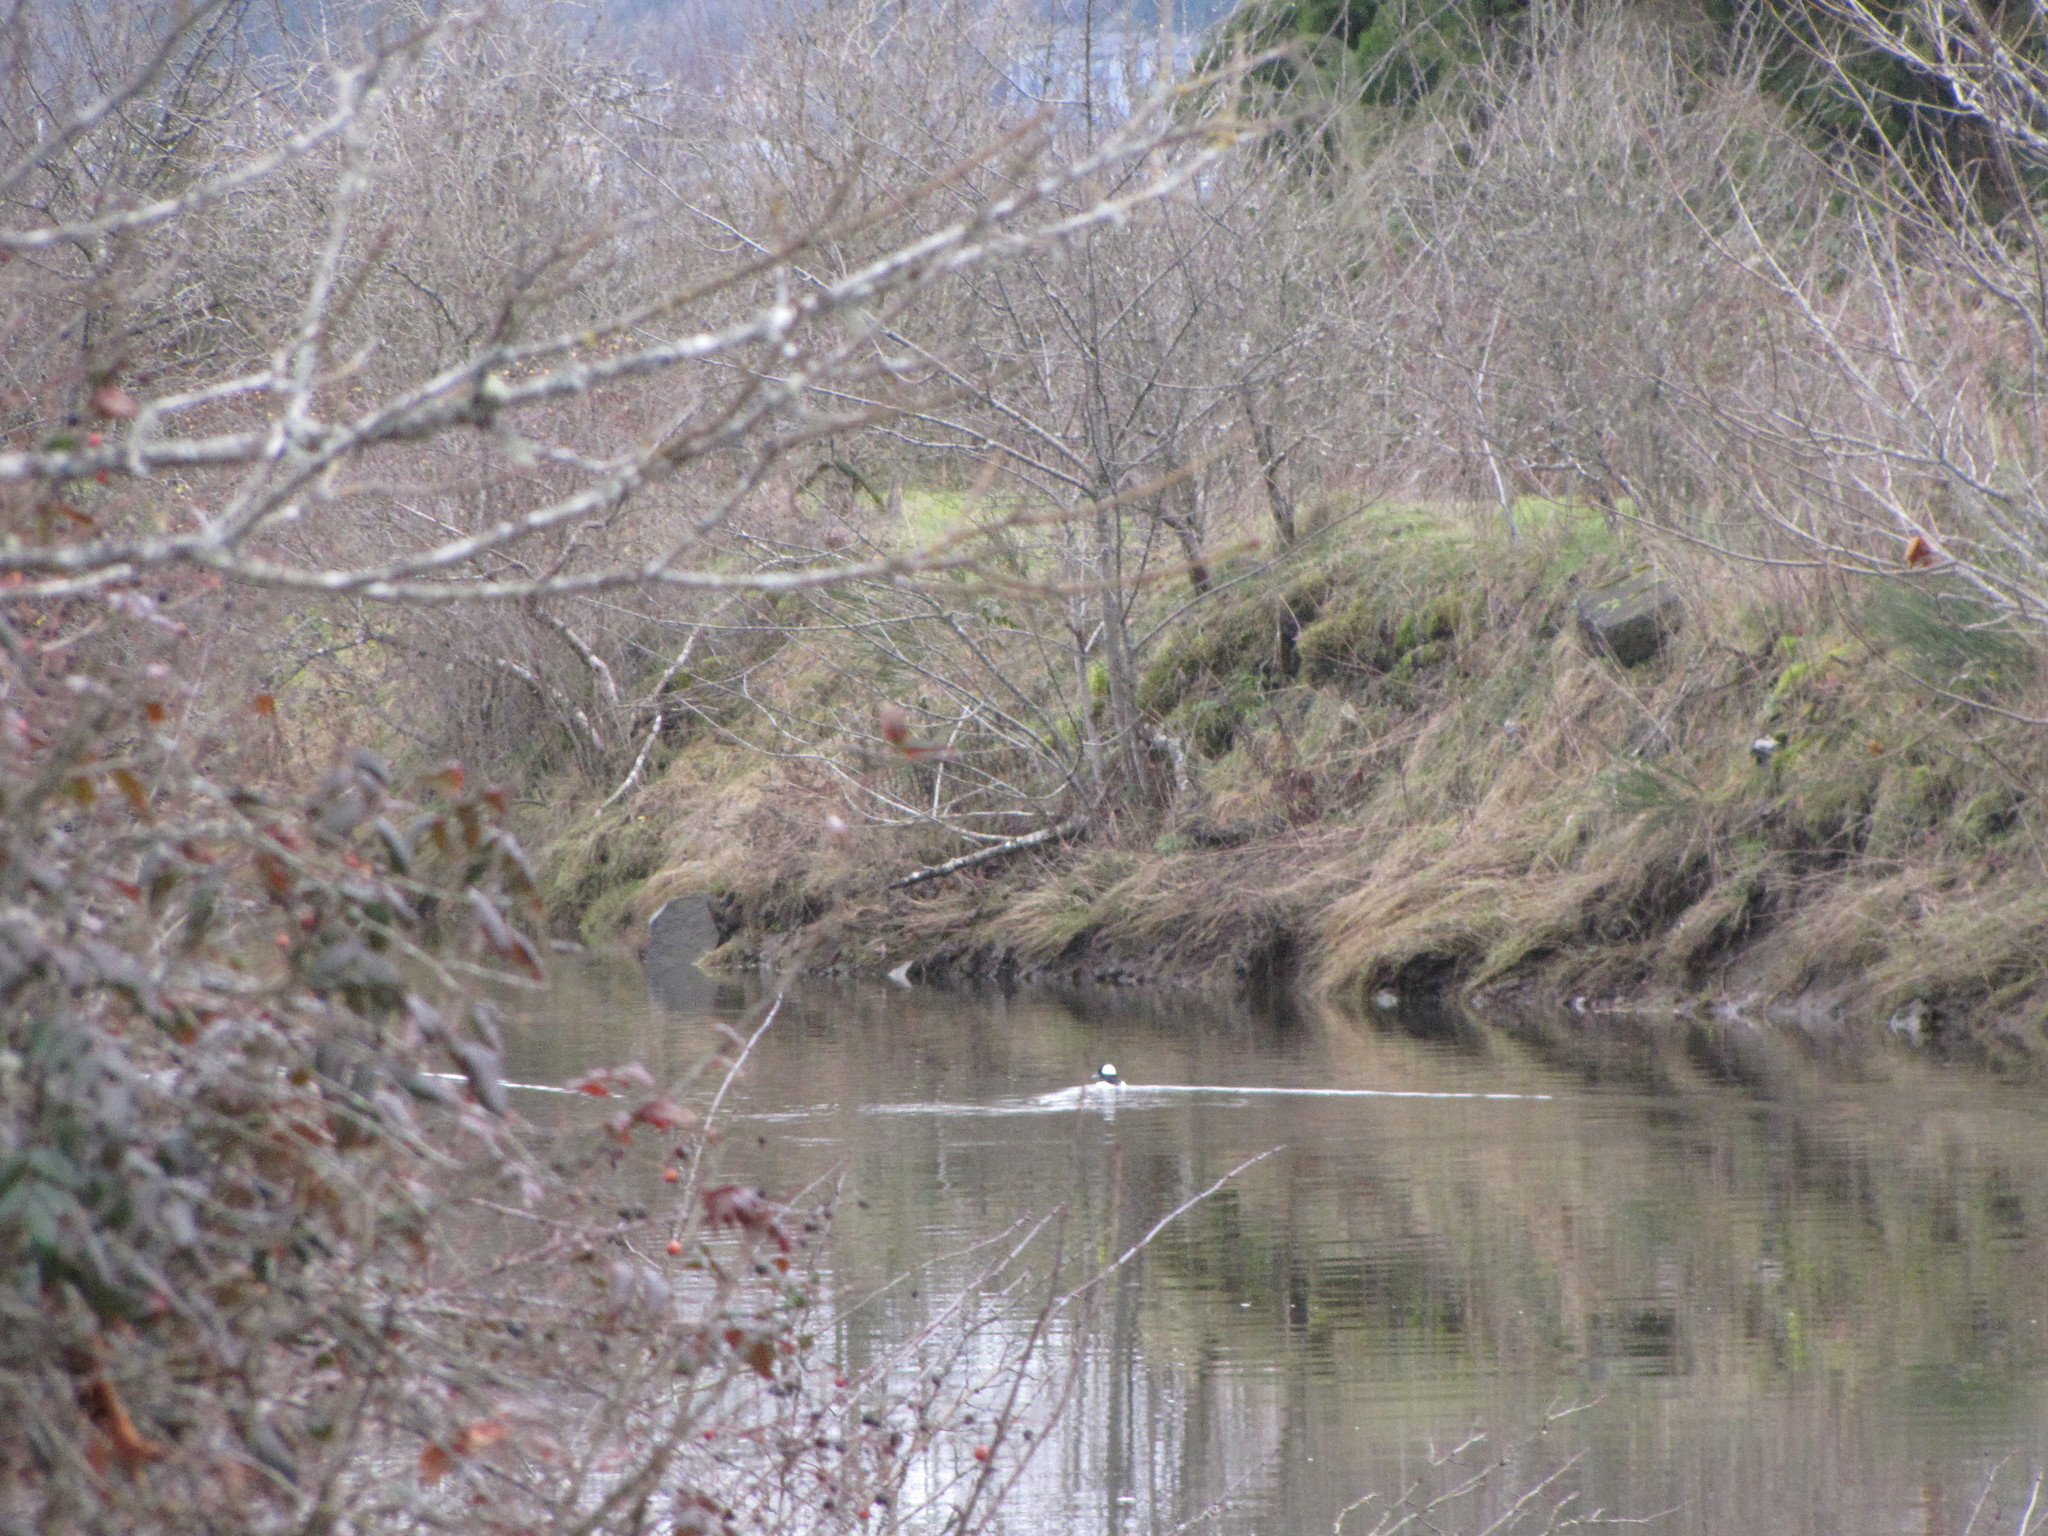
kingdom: Animalia
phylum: Chordata
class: Aves
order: Anseriformes
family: Anatidae
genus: Bucephala
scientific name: Bucephala albeola
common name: Bufflehead
